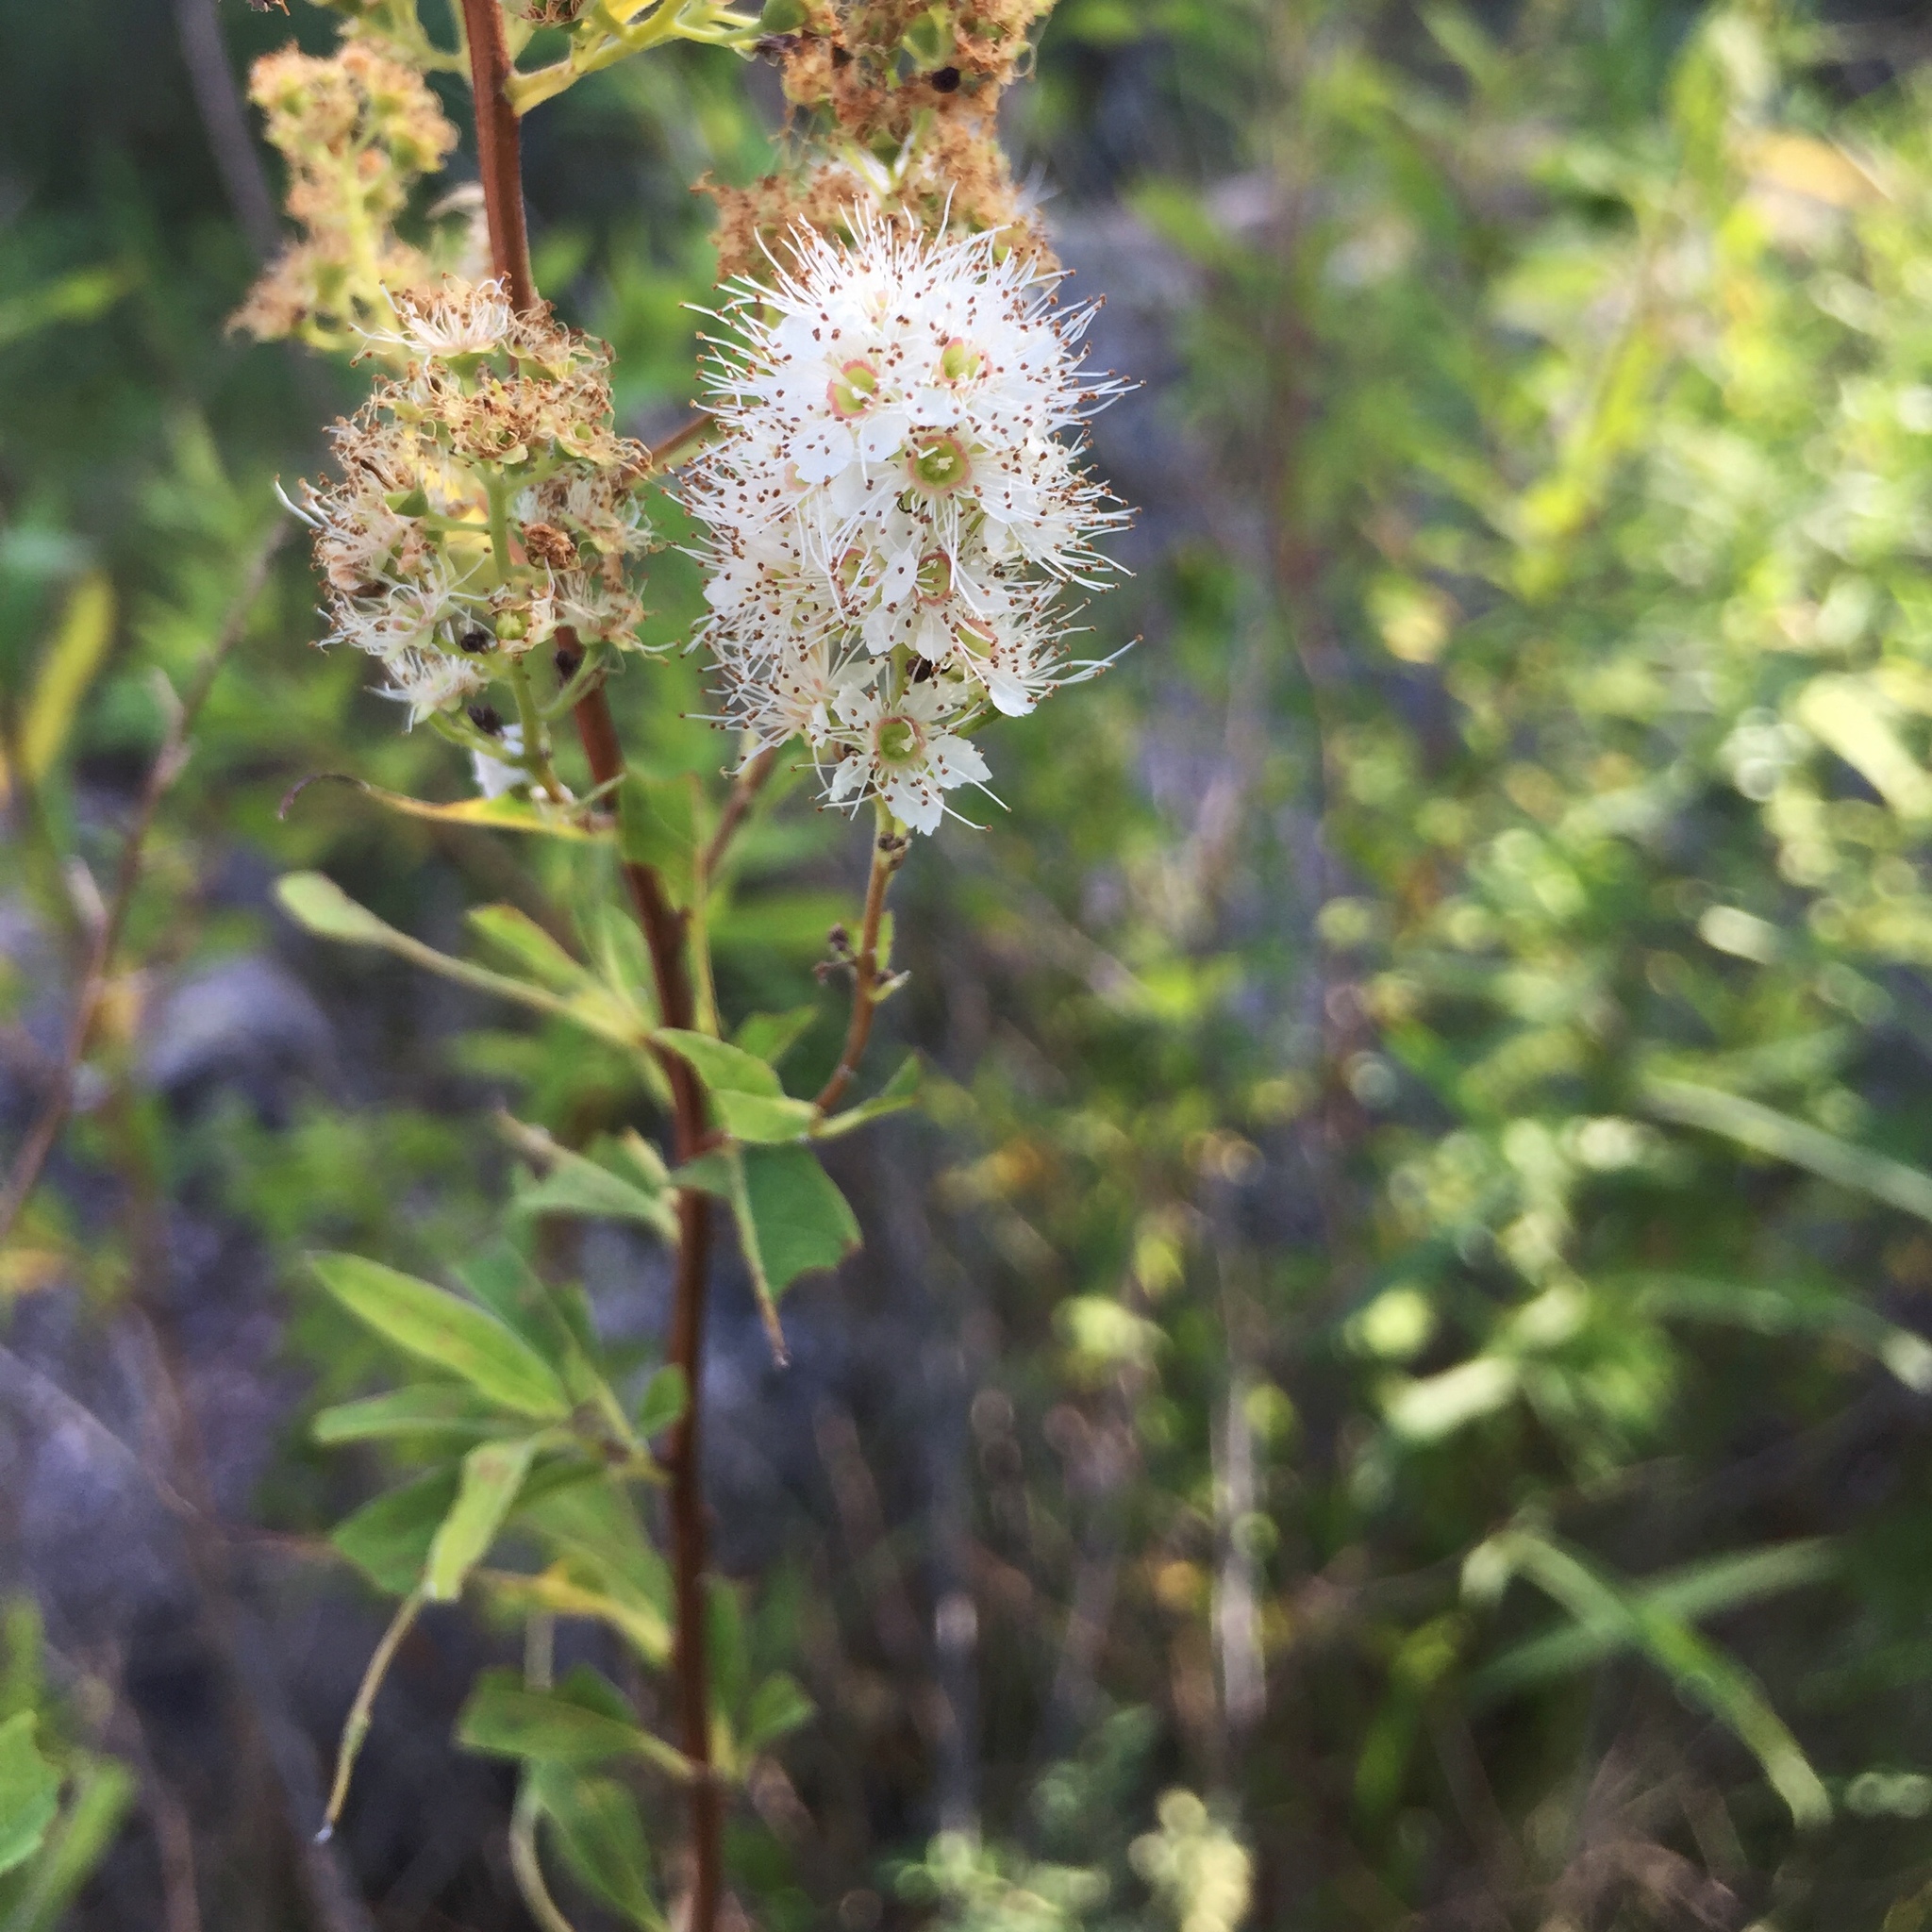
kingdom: Plantae
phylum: Tracheophyta
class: Magnoliopsida
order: Rosales
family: Rosaceae
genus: Spiraea
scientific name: Spiraea alba
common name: Pale bridewort
